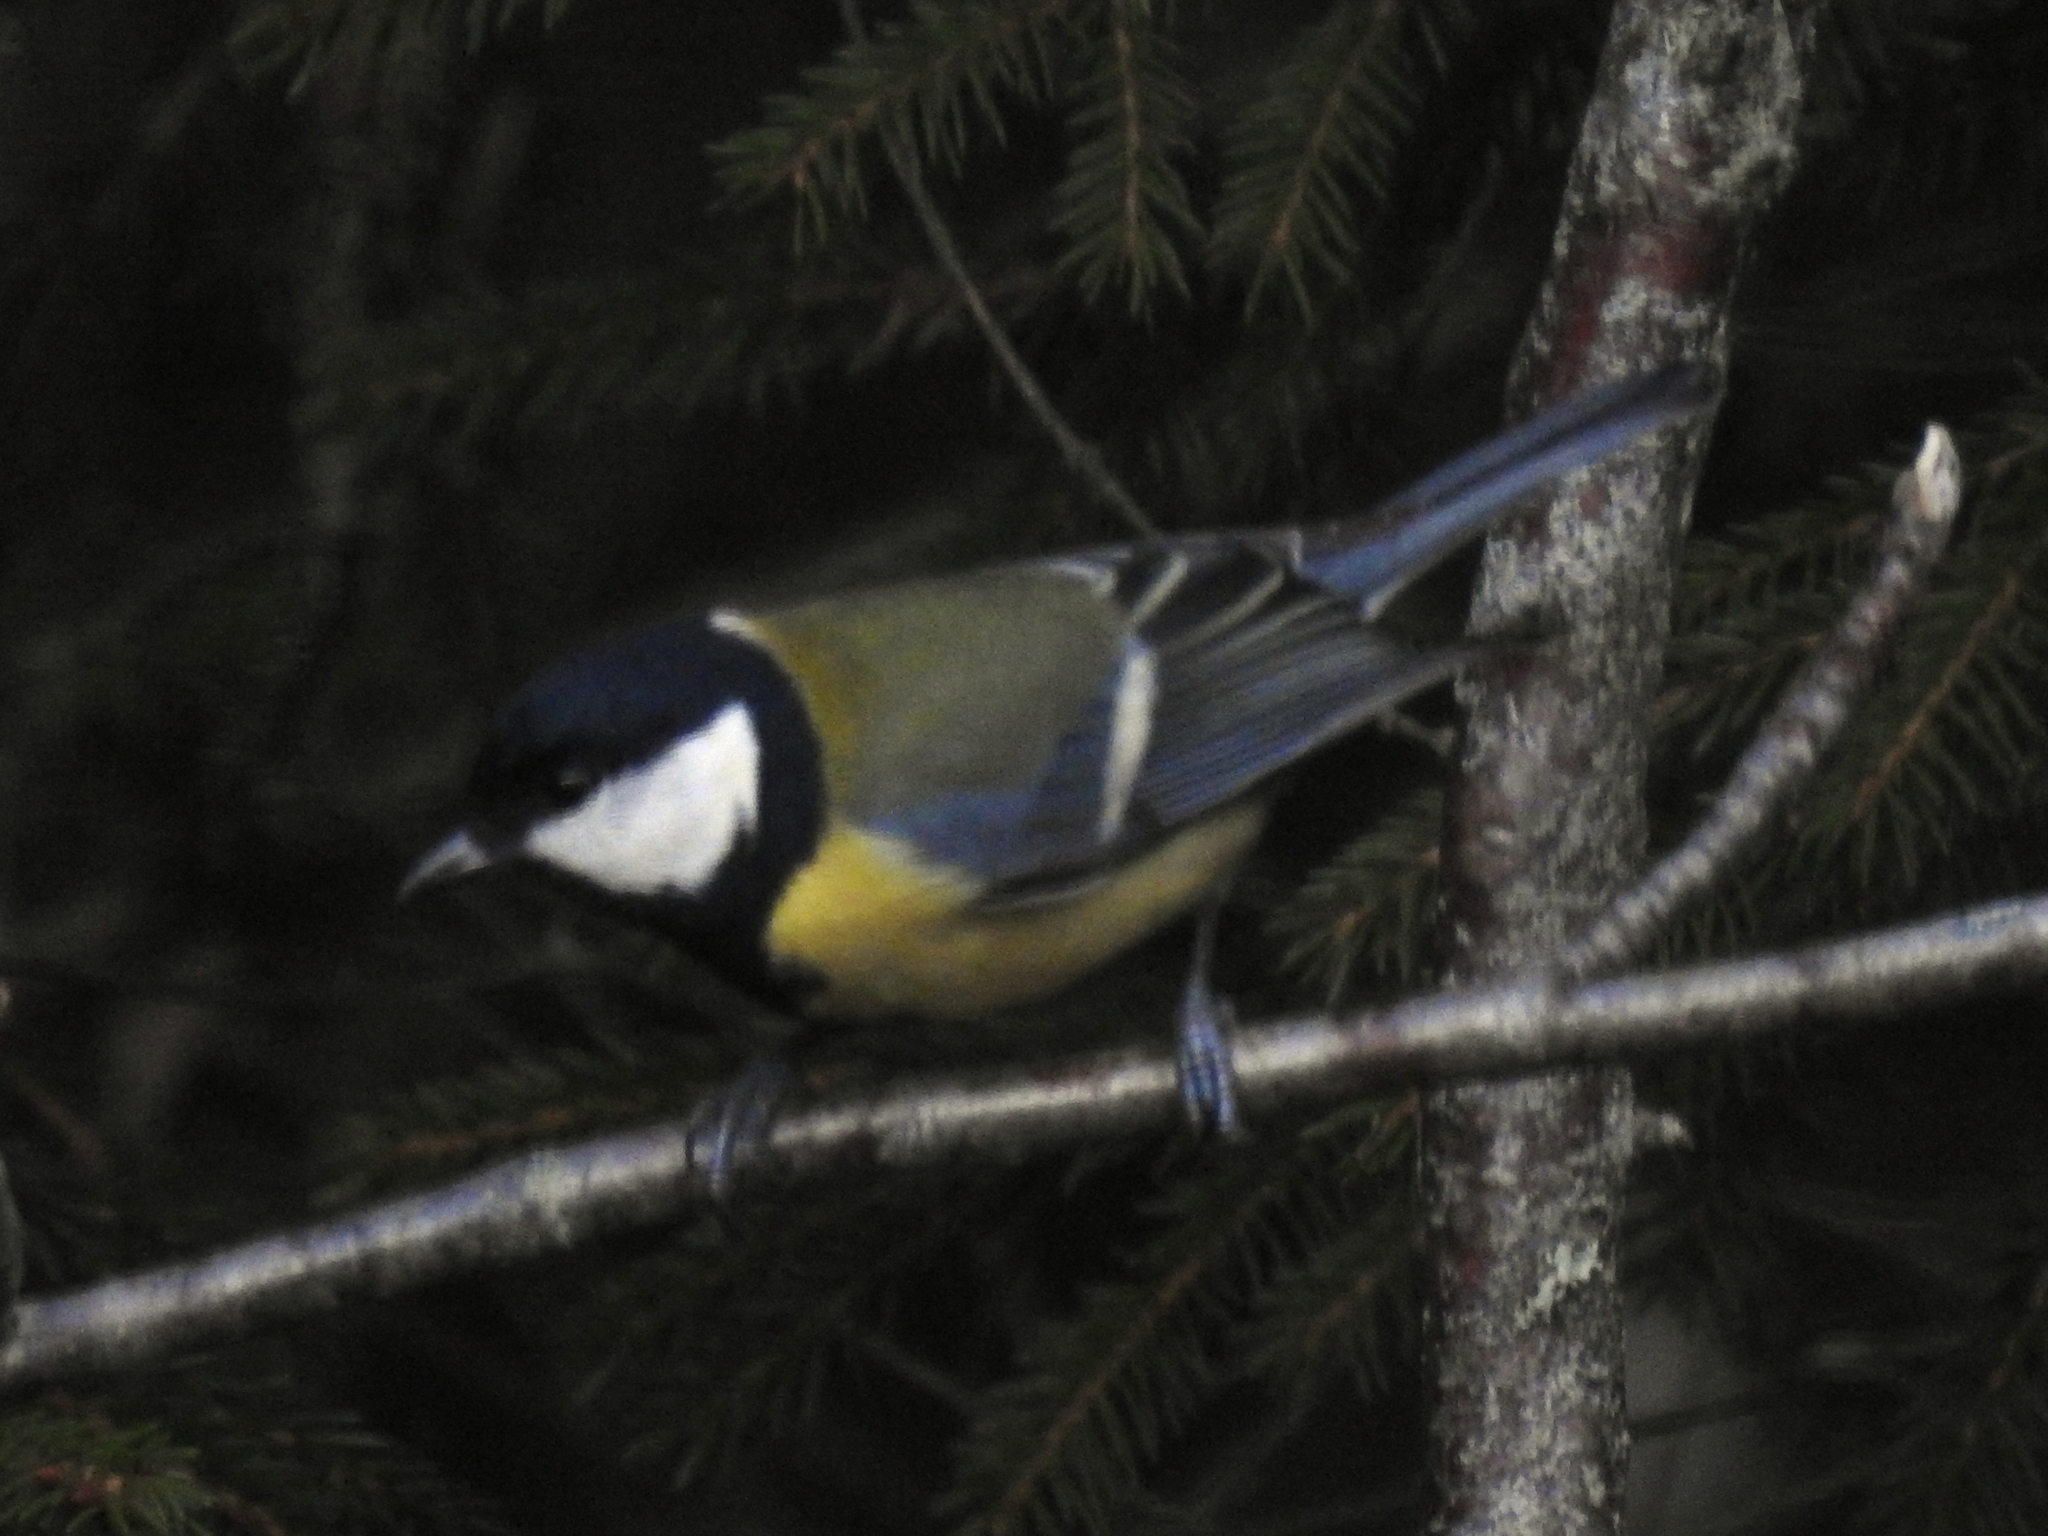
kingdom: Animalia
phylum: Chordata
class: Aves
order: Passeriformes
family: Paridae
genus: Parus
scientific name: Parus major
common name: Great tit
